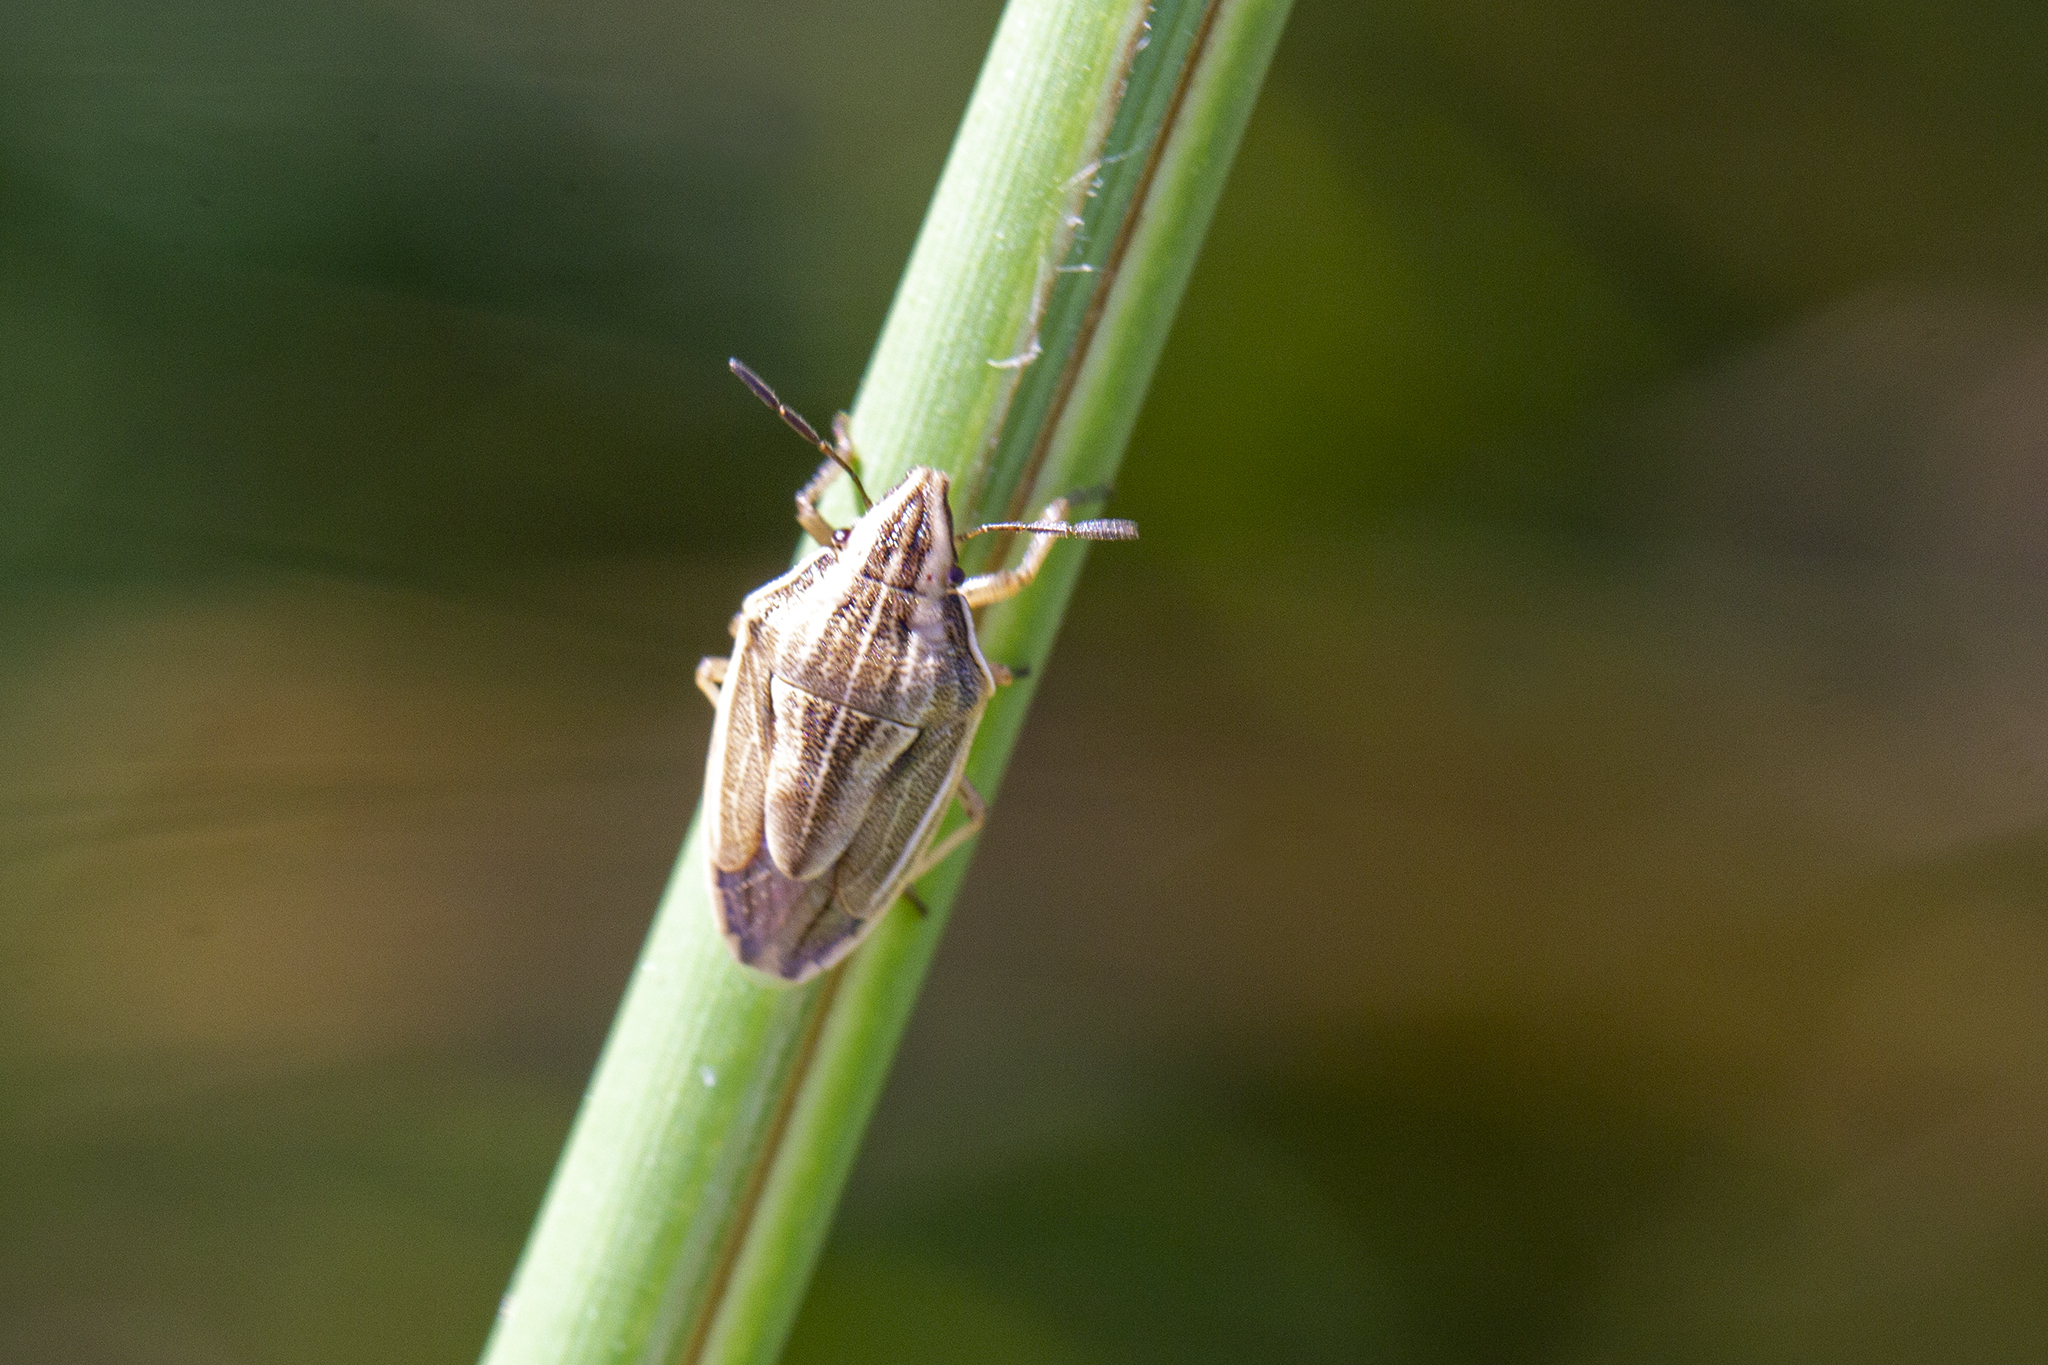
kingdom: Animalia
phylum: Arthropoda
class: Insecta
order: Hemiptera
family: Pentatomidae
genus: Aelia
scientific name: Aelia acuminata
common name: Bishop's mitre
